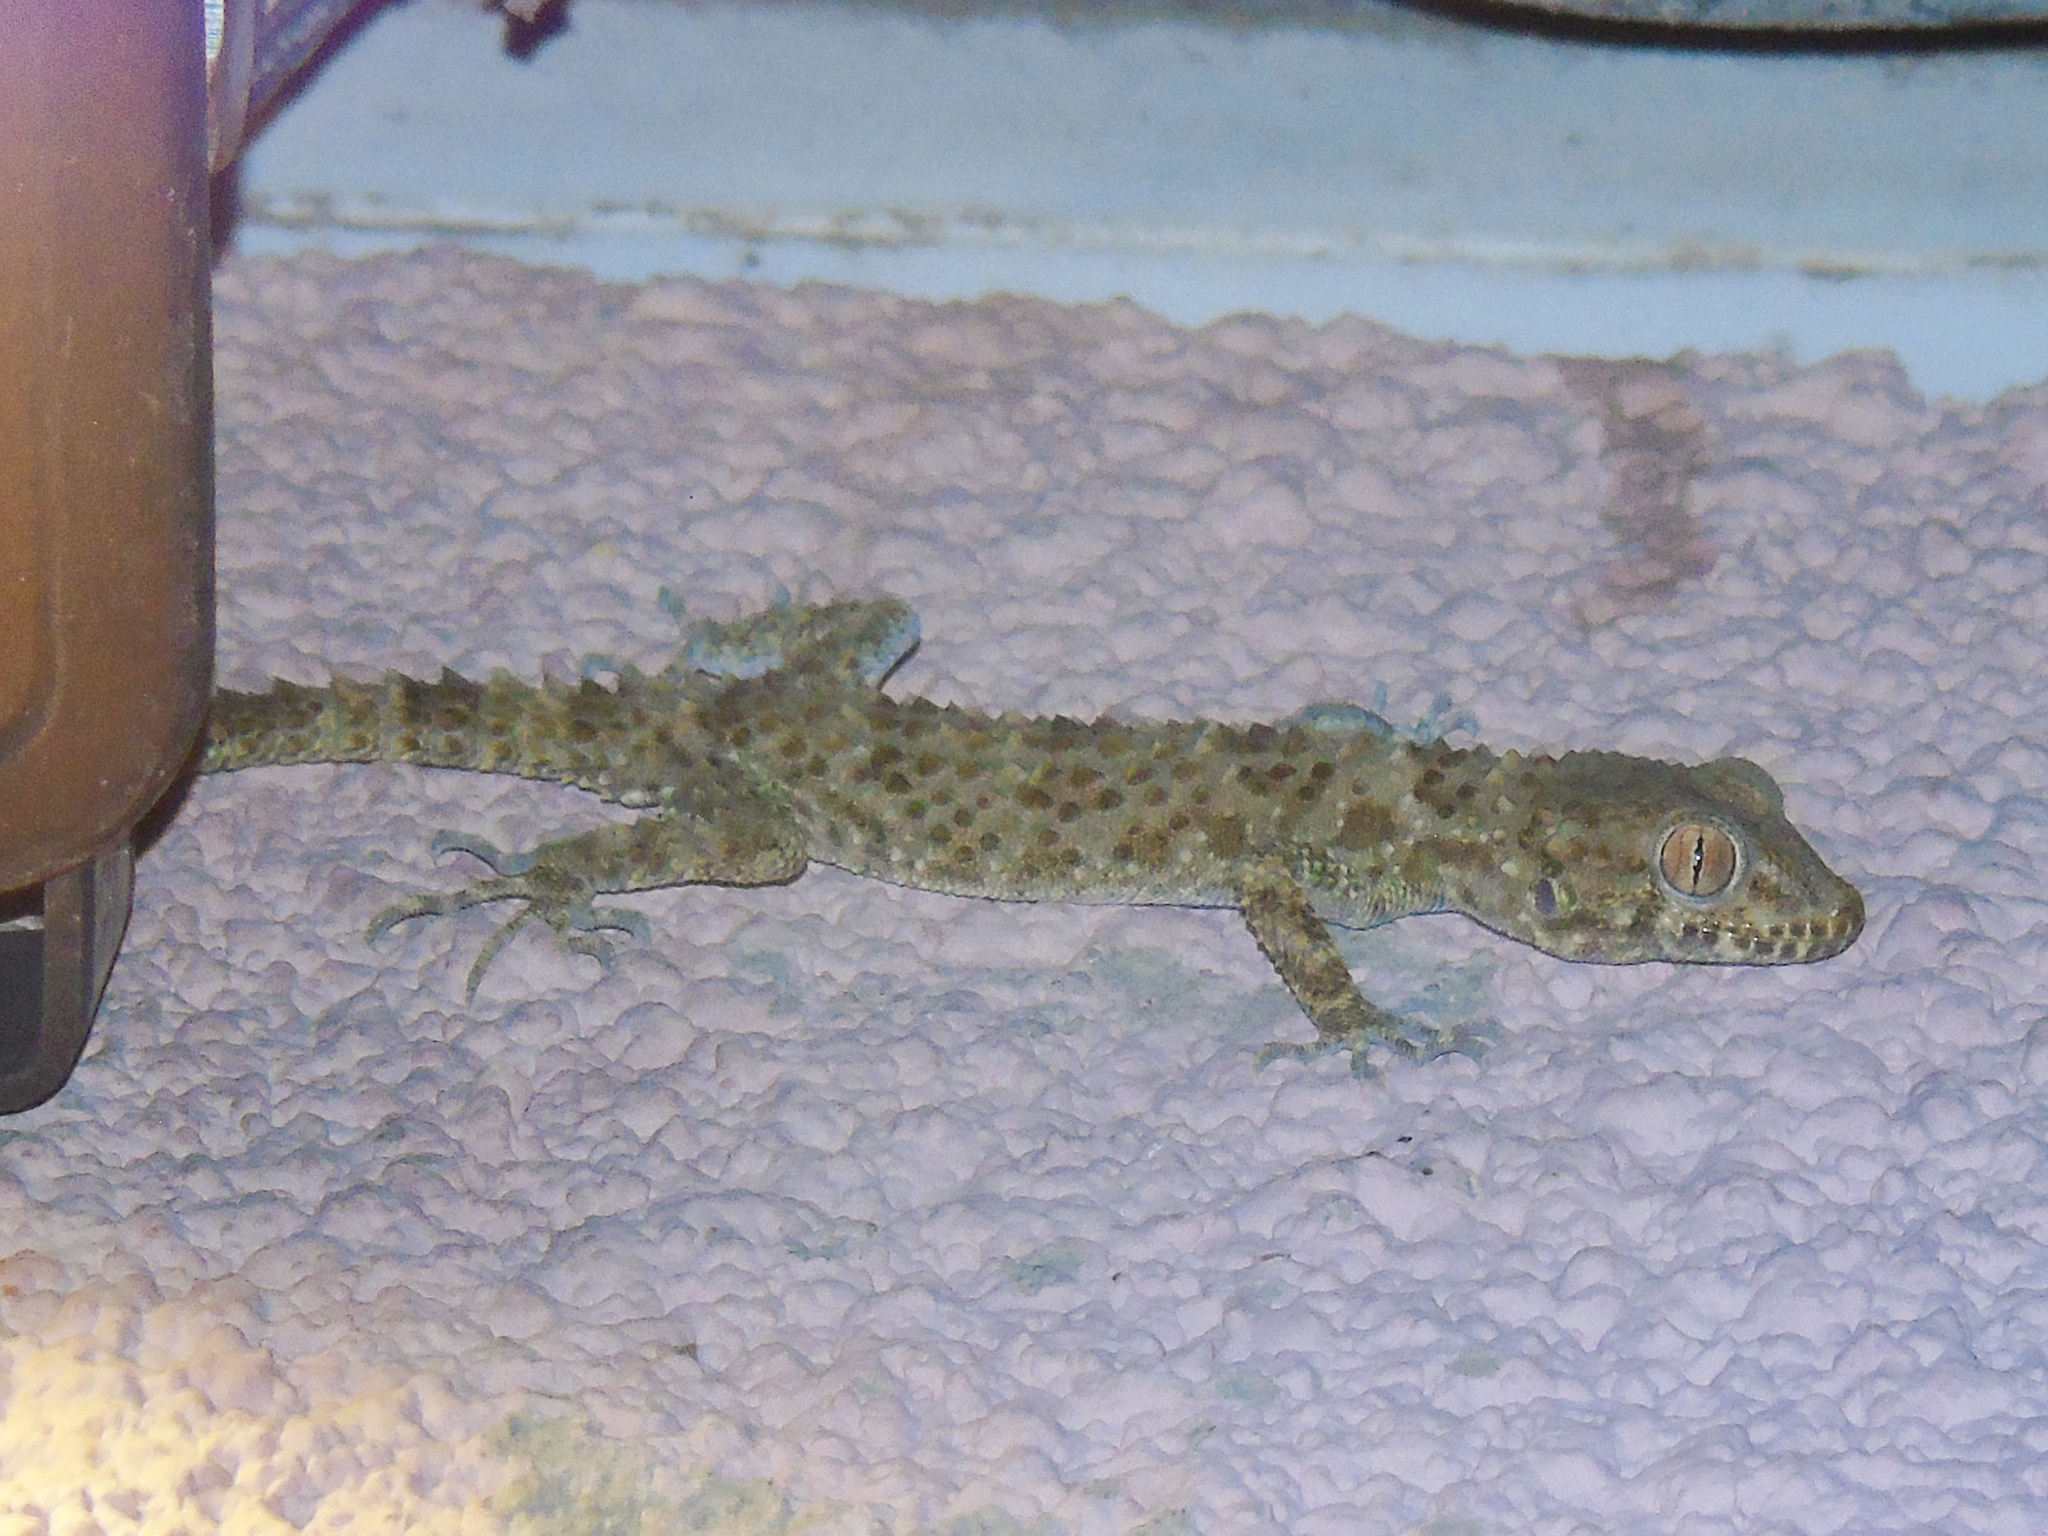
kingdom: Animalia
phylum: Chordata
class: Squamata
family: Gekkonidae
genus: Tenuidactylus
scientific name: Tenuidactylus caspius
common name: Caspian bent-toed gecko
